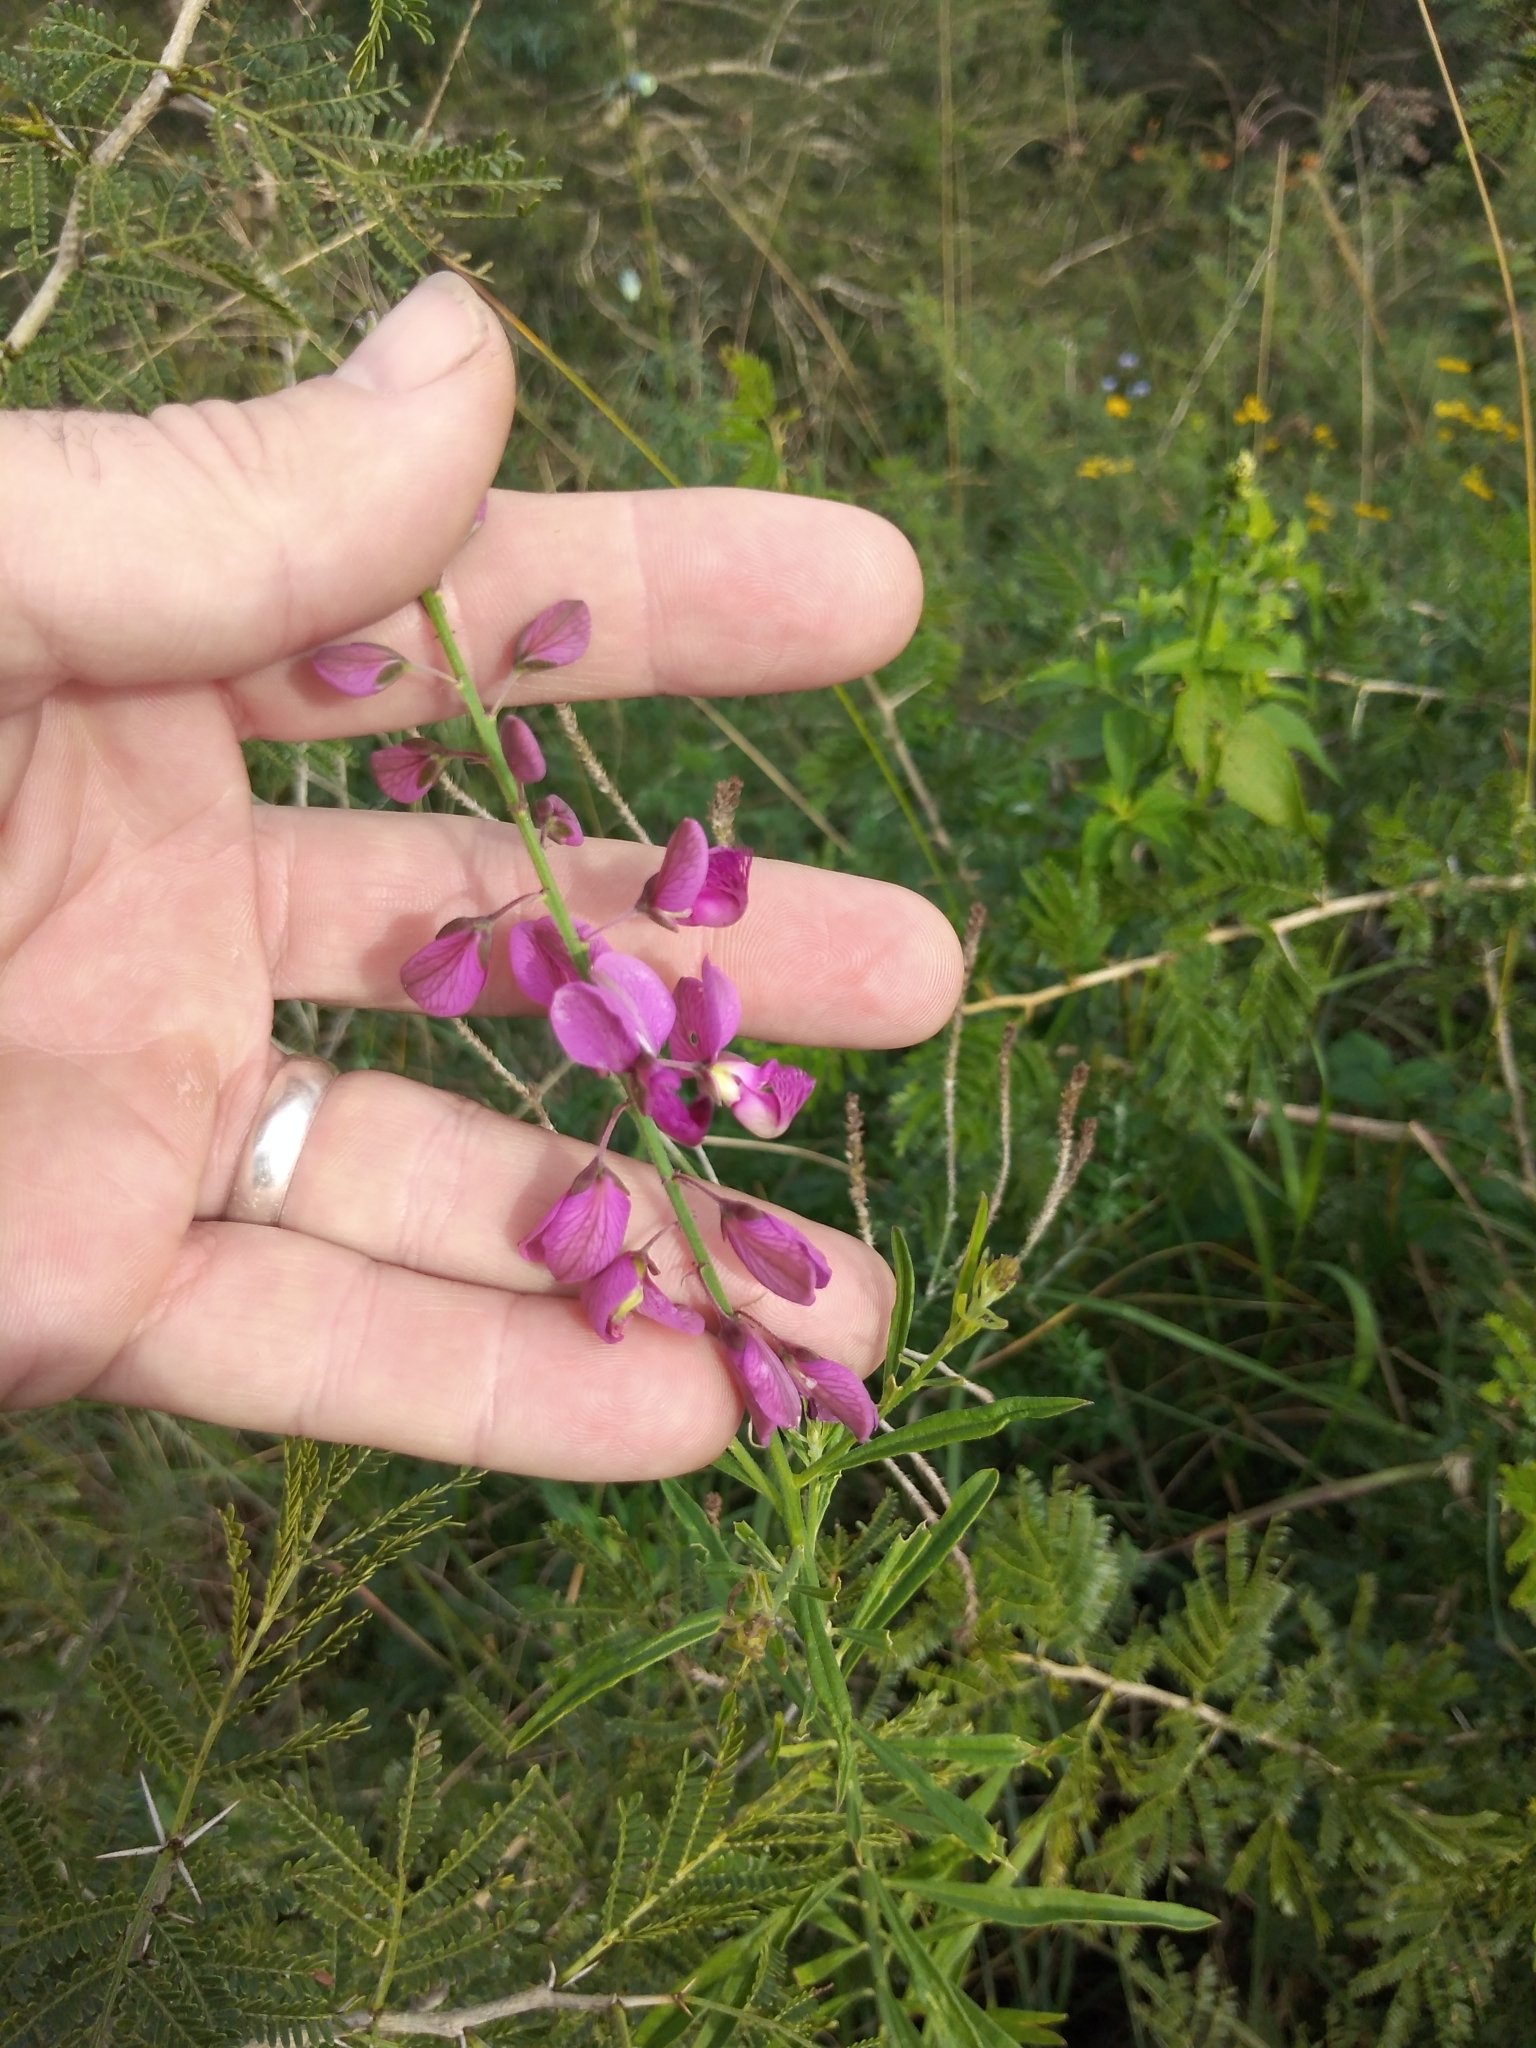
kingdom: Plantae
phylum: Tracheophyta
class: Magnoliopsida
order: Fabales
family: Polygalaceae
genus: Polygala
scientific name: Polygala virgata
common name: Milkwort
